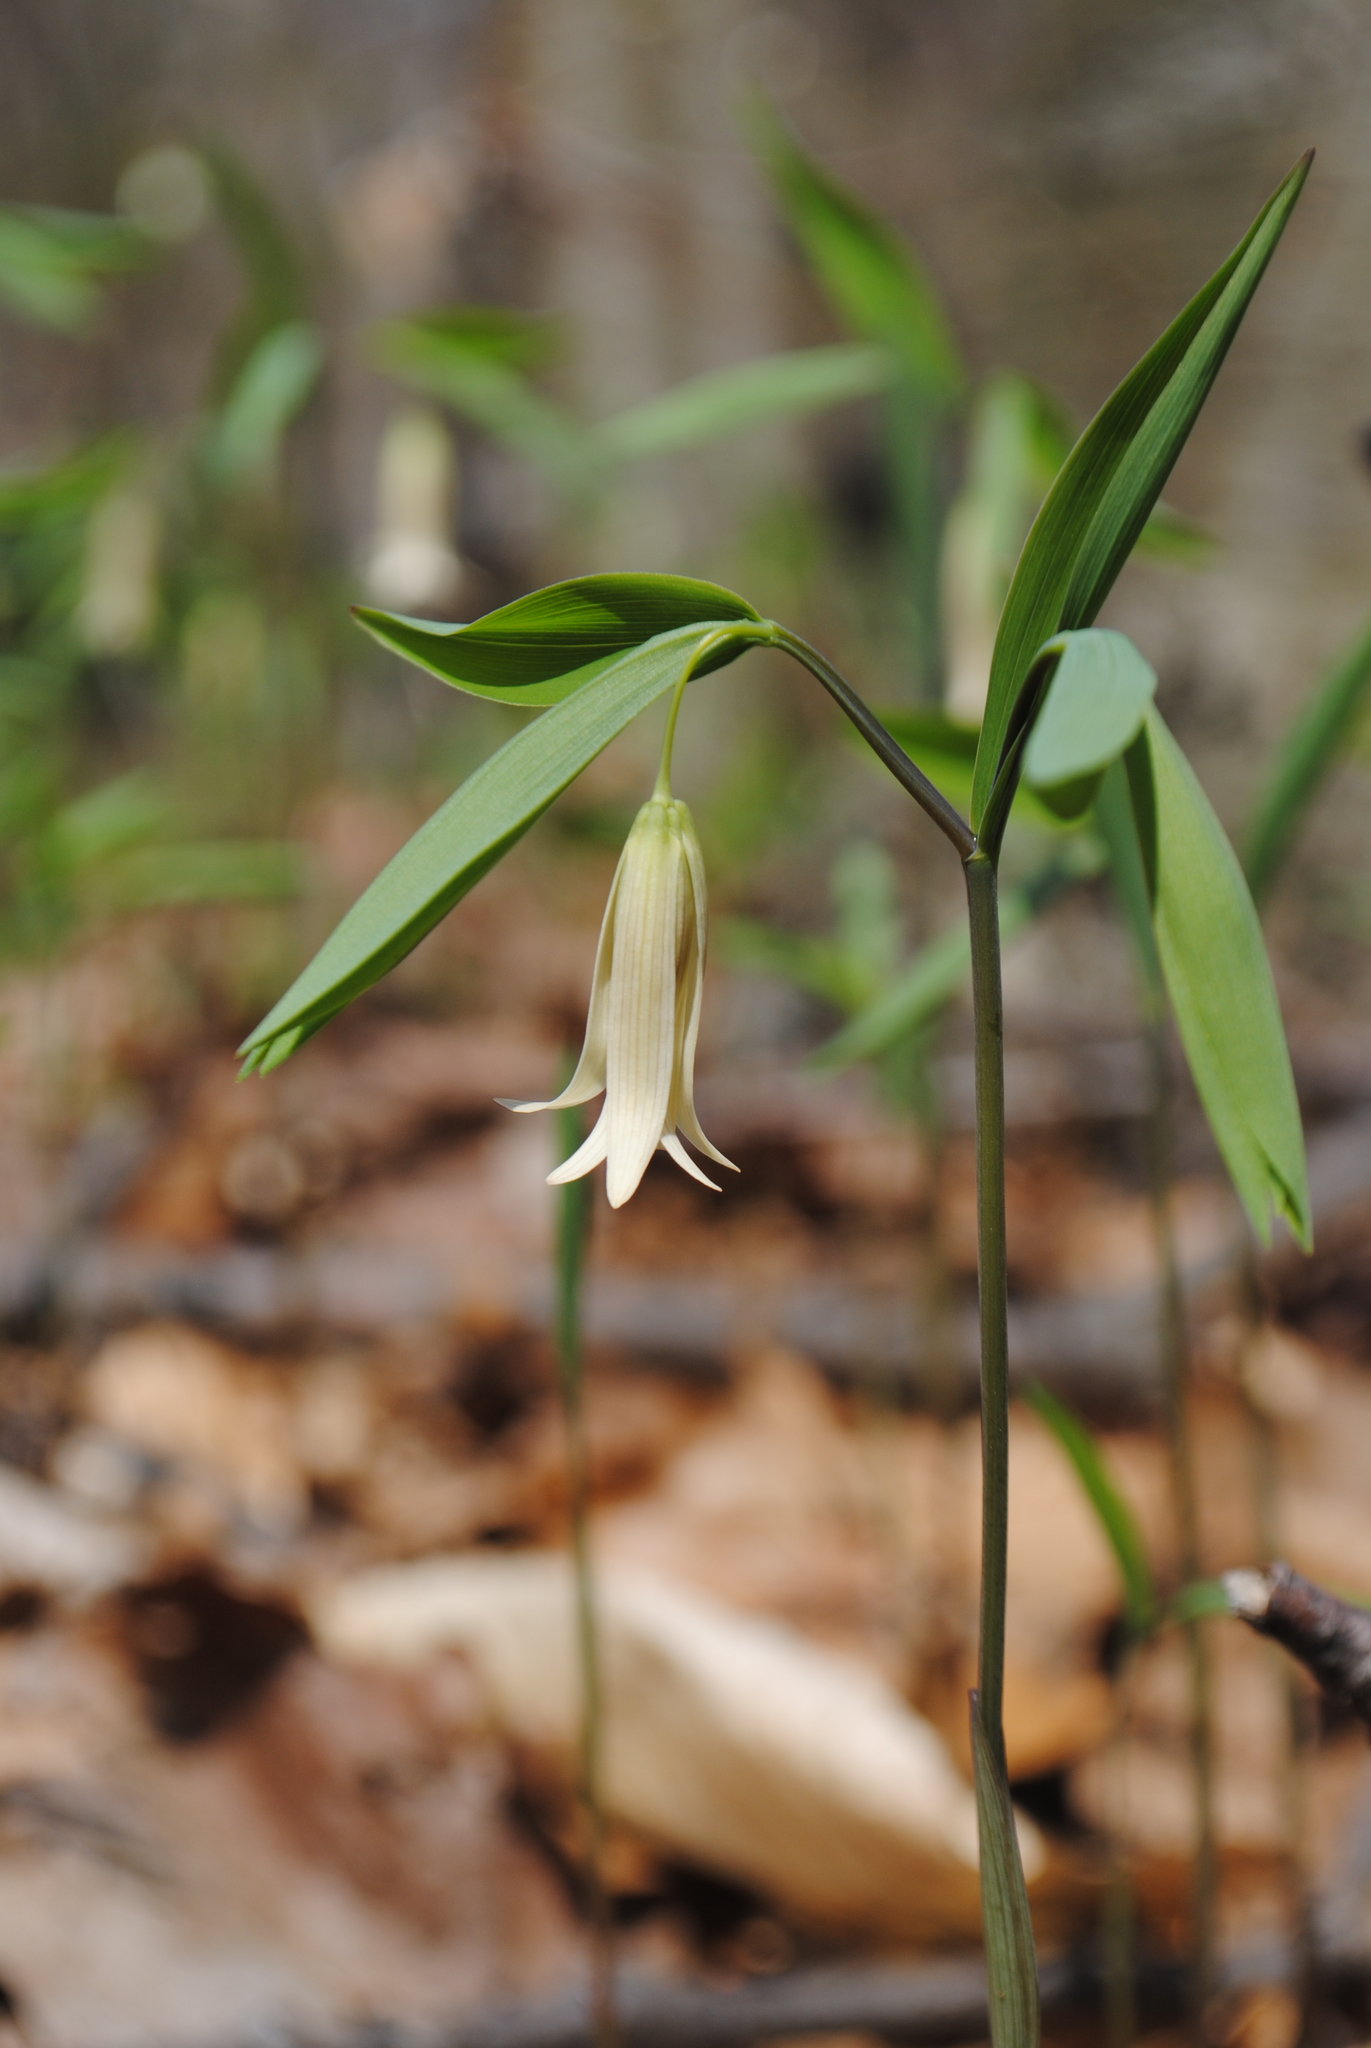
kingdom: Plantae
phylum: Tracheophyta
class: Liliopsida
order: Liliales
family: Colchicaceae
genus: Uvularia
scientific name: Uvularia sessilifolia
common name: Straw-lily
